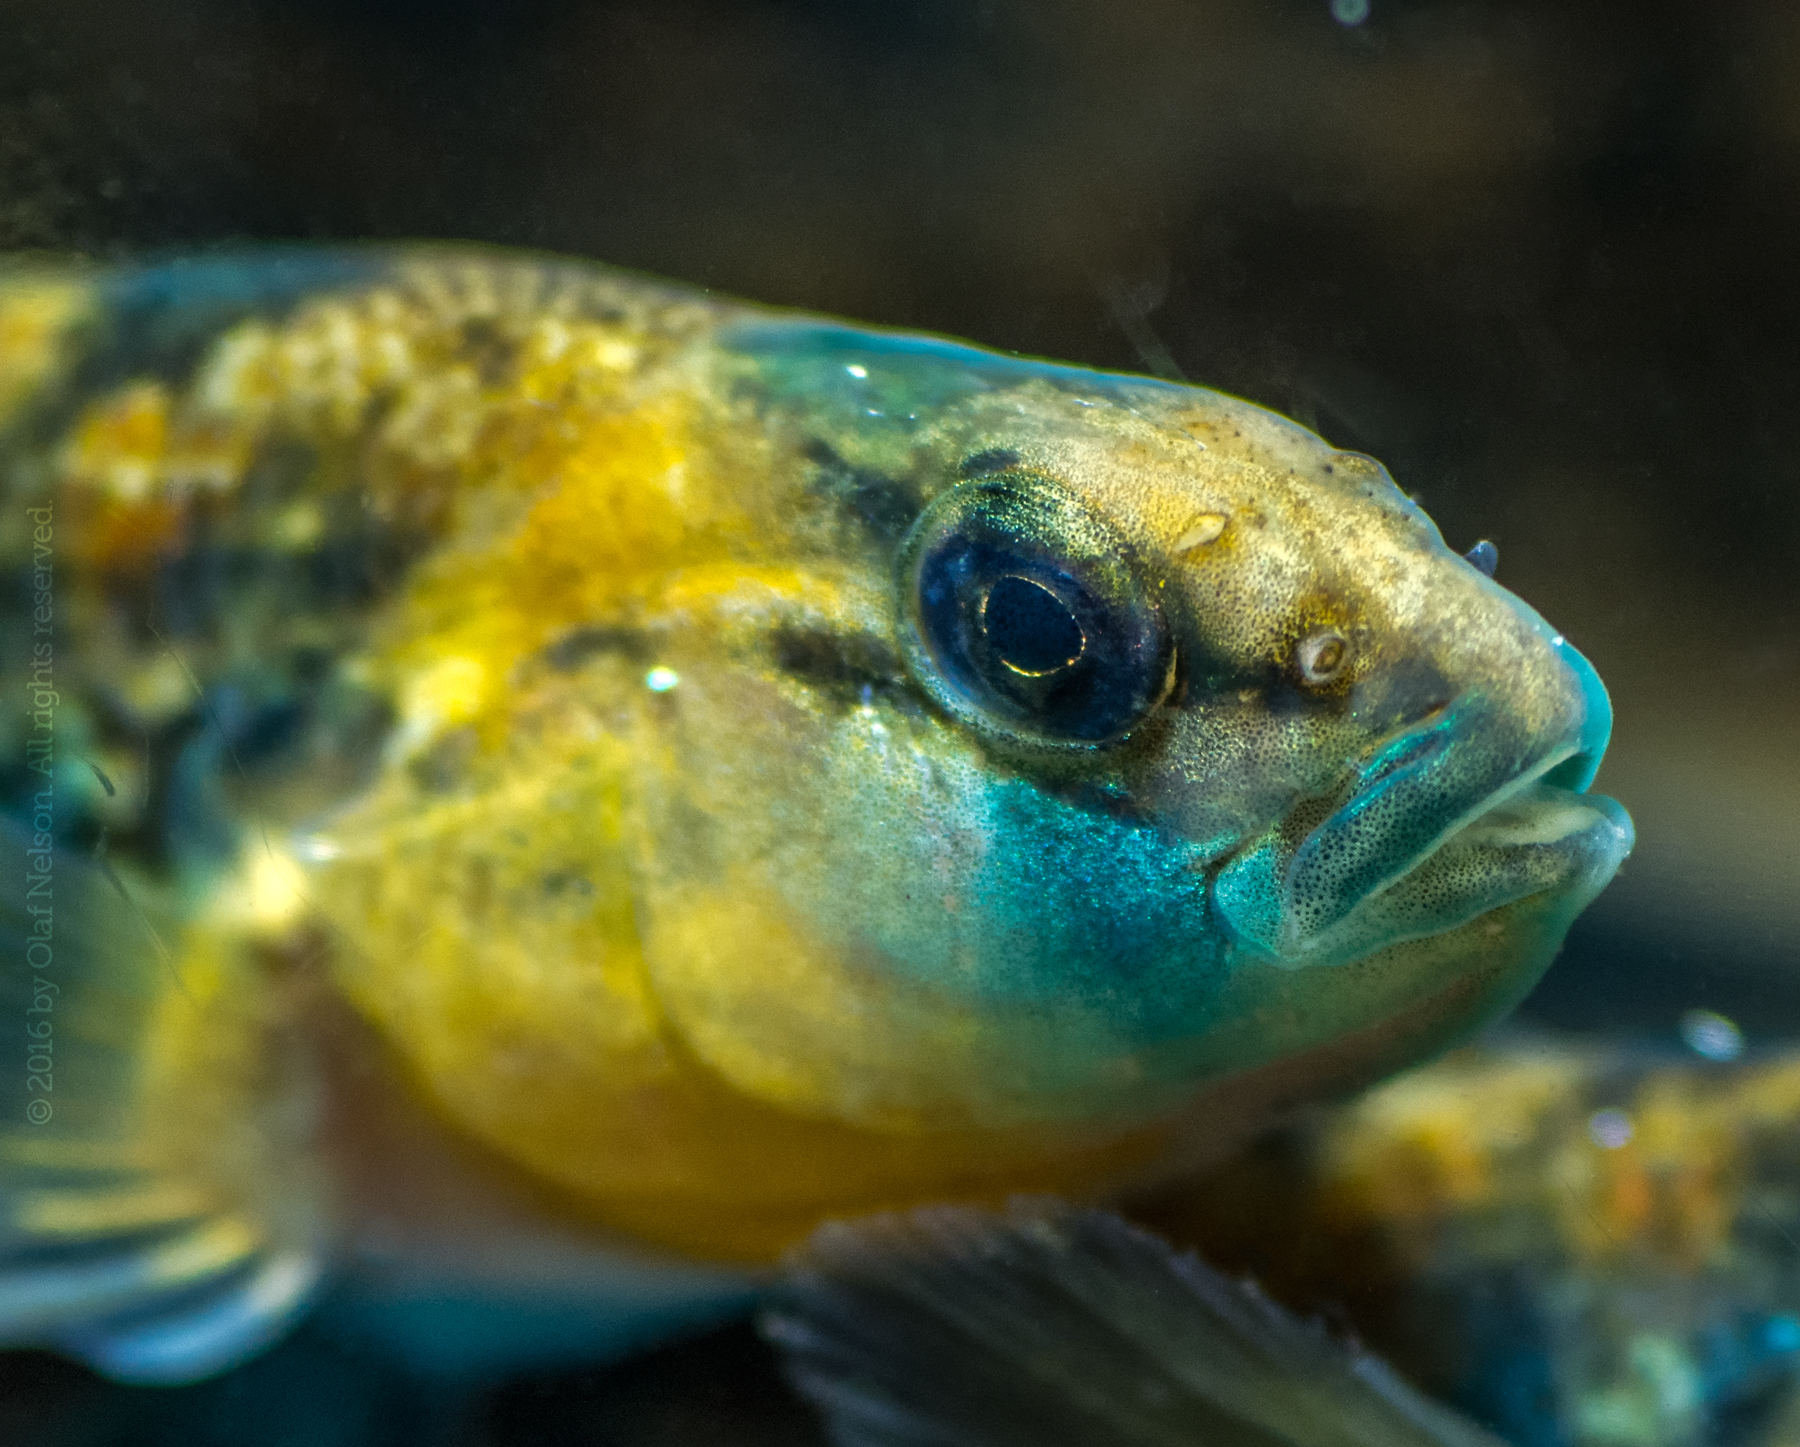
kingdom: Animalia
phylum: Chordata
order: Perciformes
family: Percidae
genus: Etheostoma
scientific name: Etheostoma spectabile
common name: Orangethroat darter
